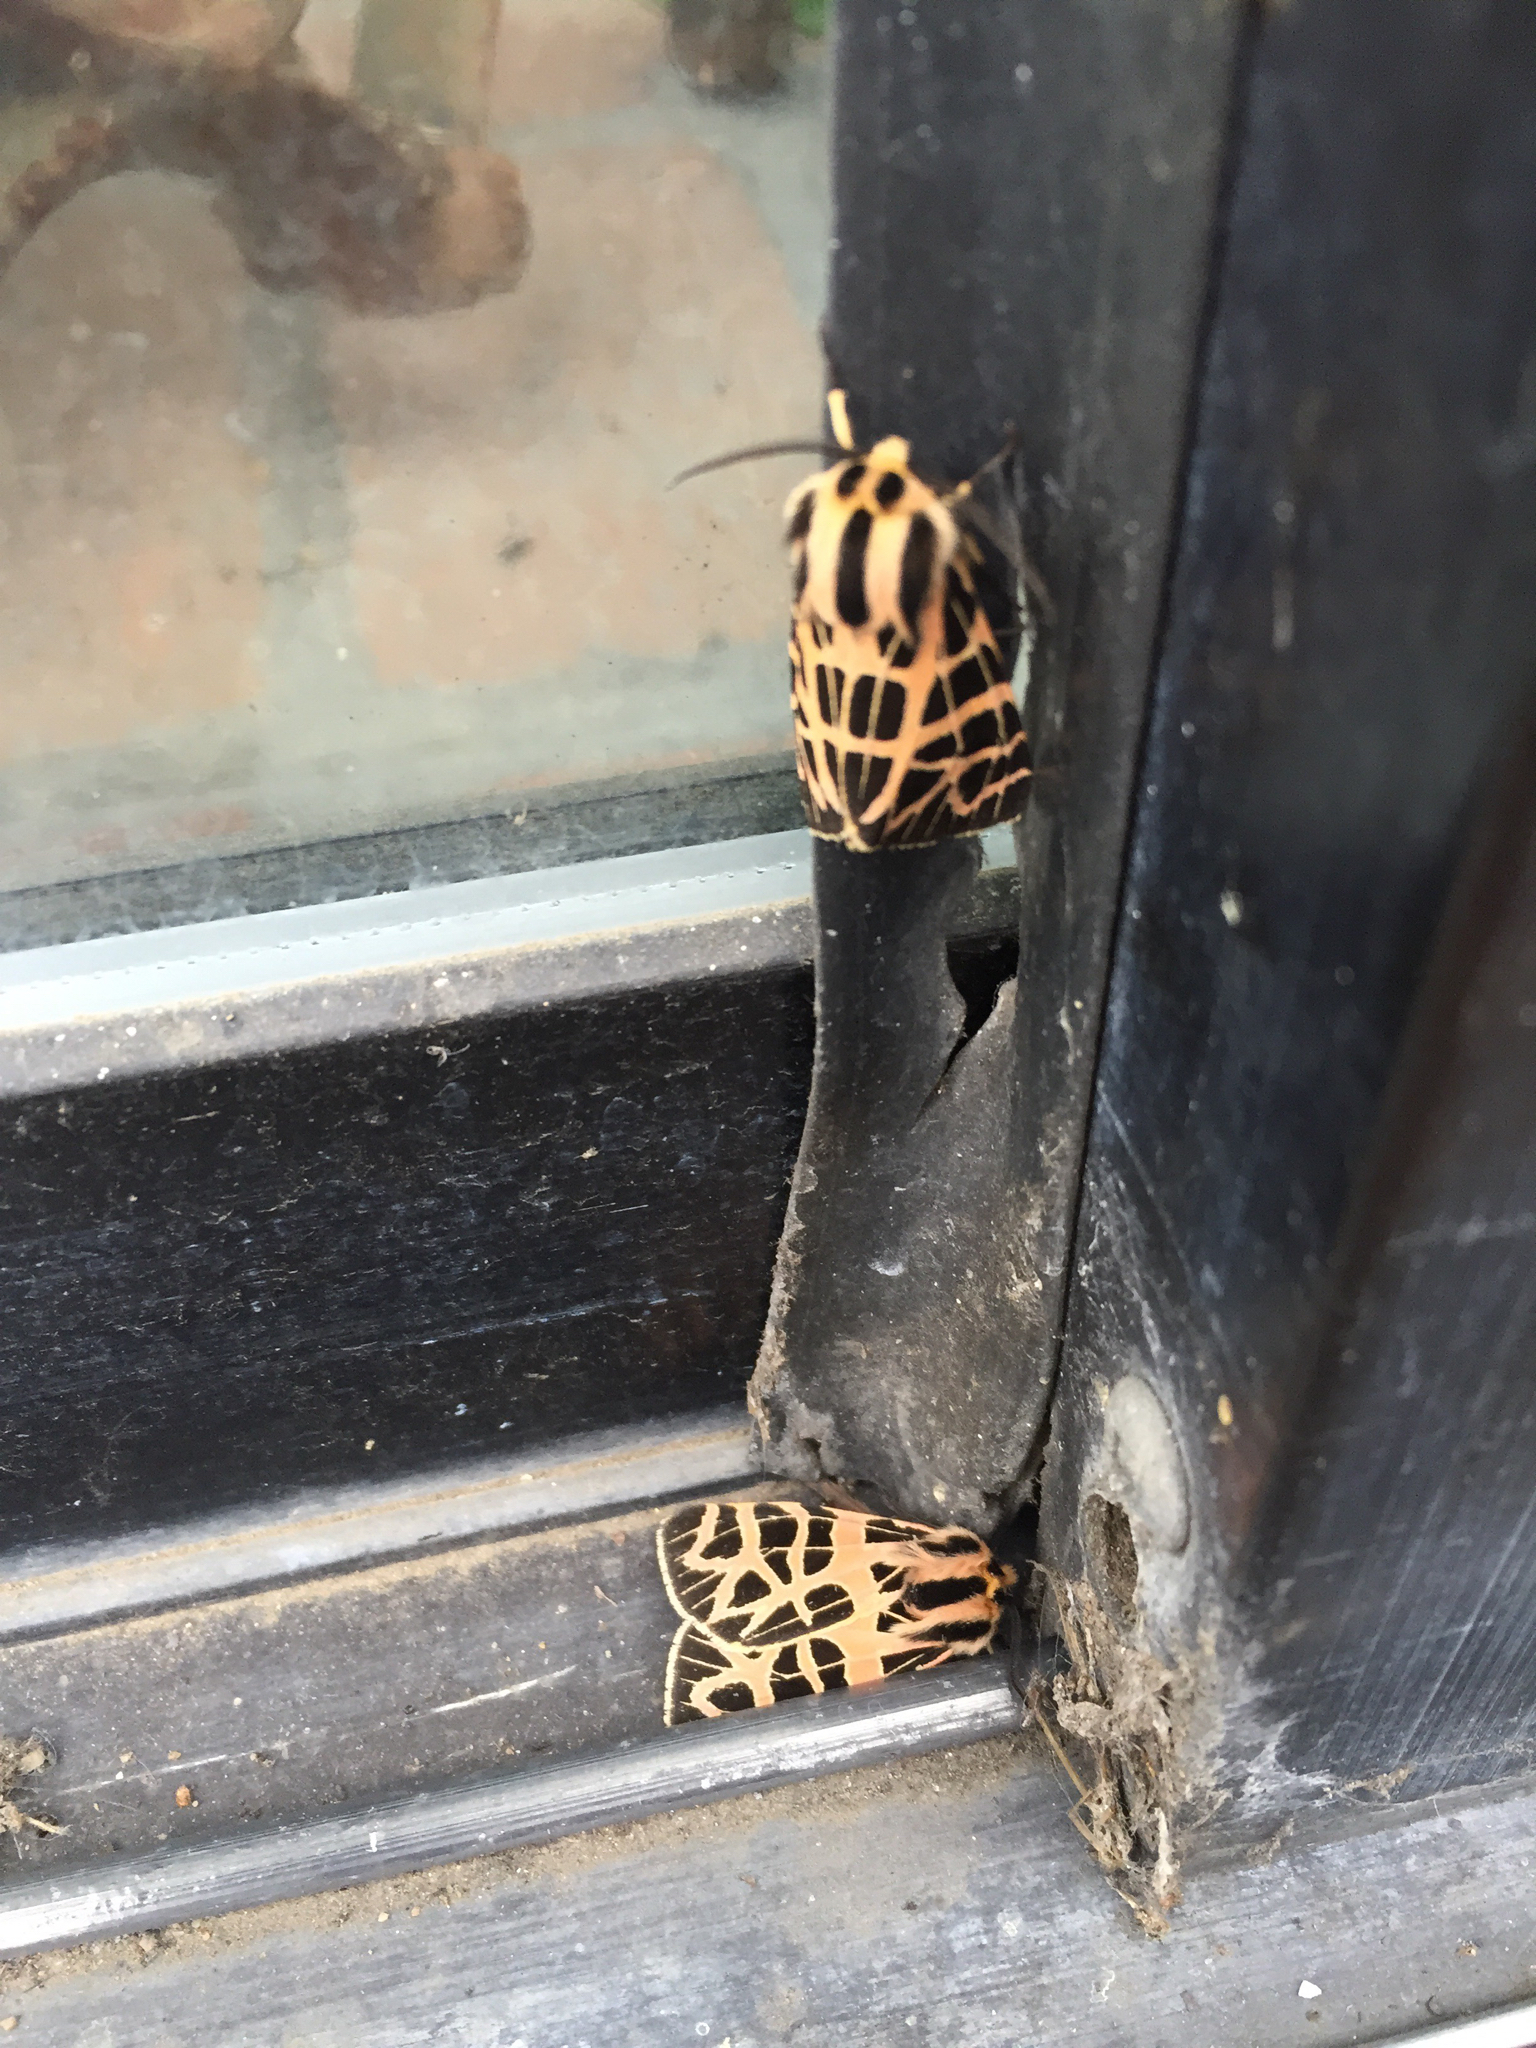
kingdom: Animalia
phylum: Arthropoda
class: Insecta
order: Lepidoptera
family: Erebidae
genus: Apantesis
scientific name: Apantesis
